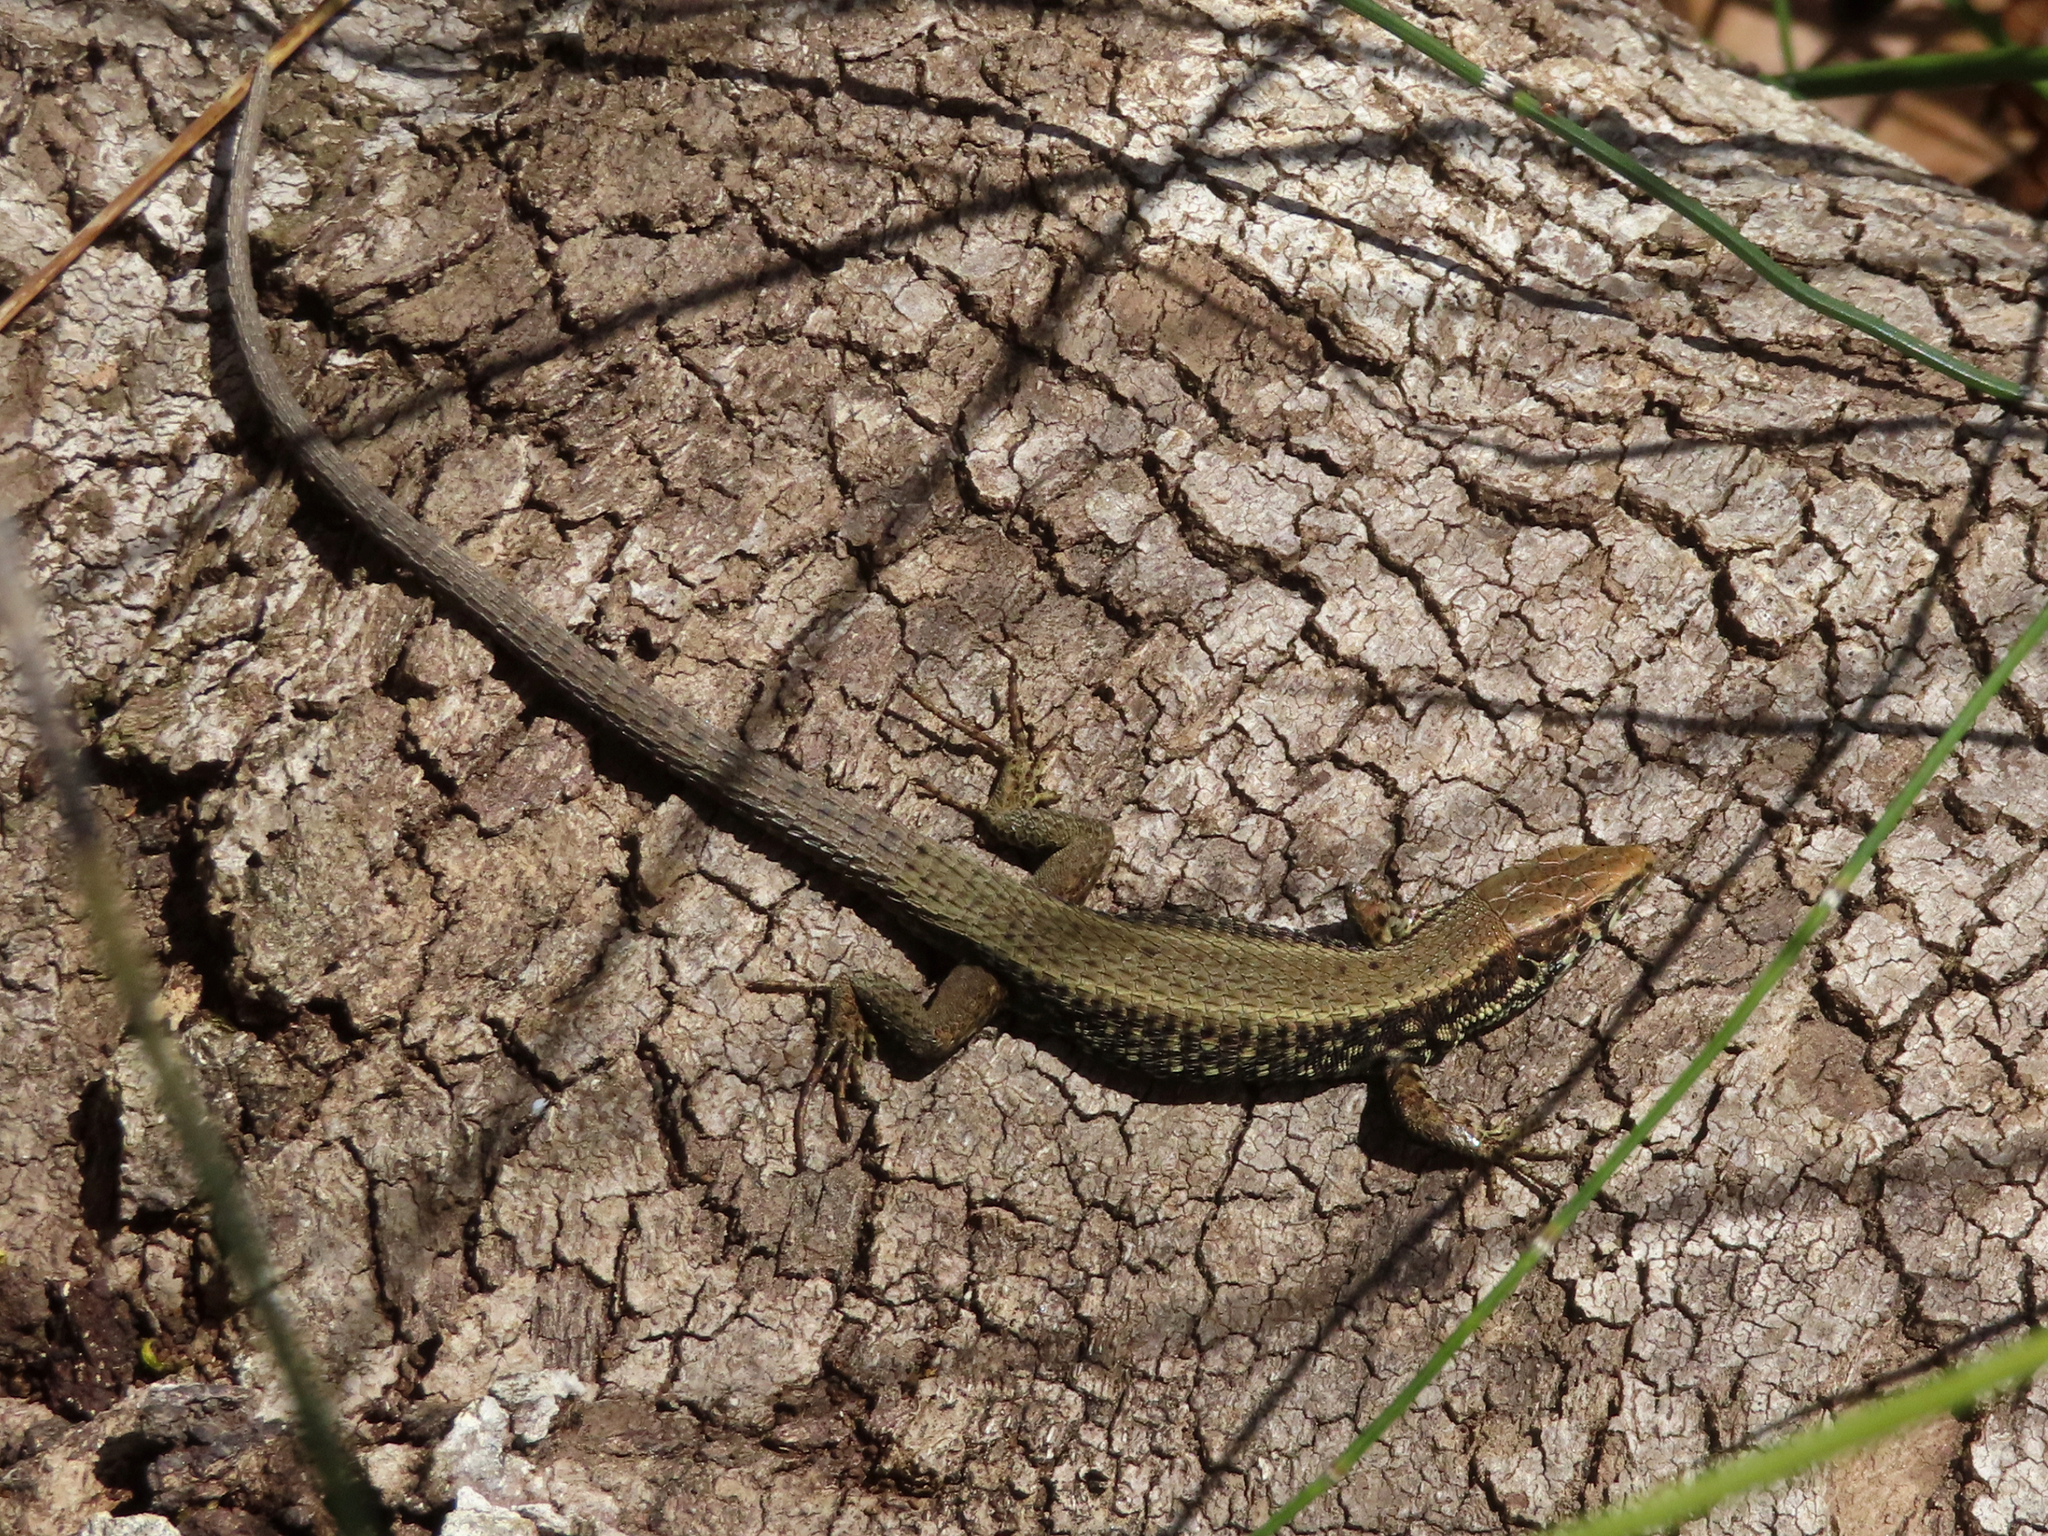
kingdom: Animalia
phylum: Chordata
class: Squamata
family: Lacertidae
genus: Algyroides
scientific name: Algyroides moreoticus
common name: Greek algyroides
